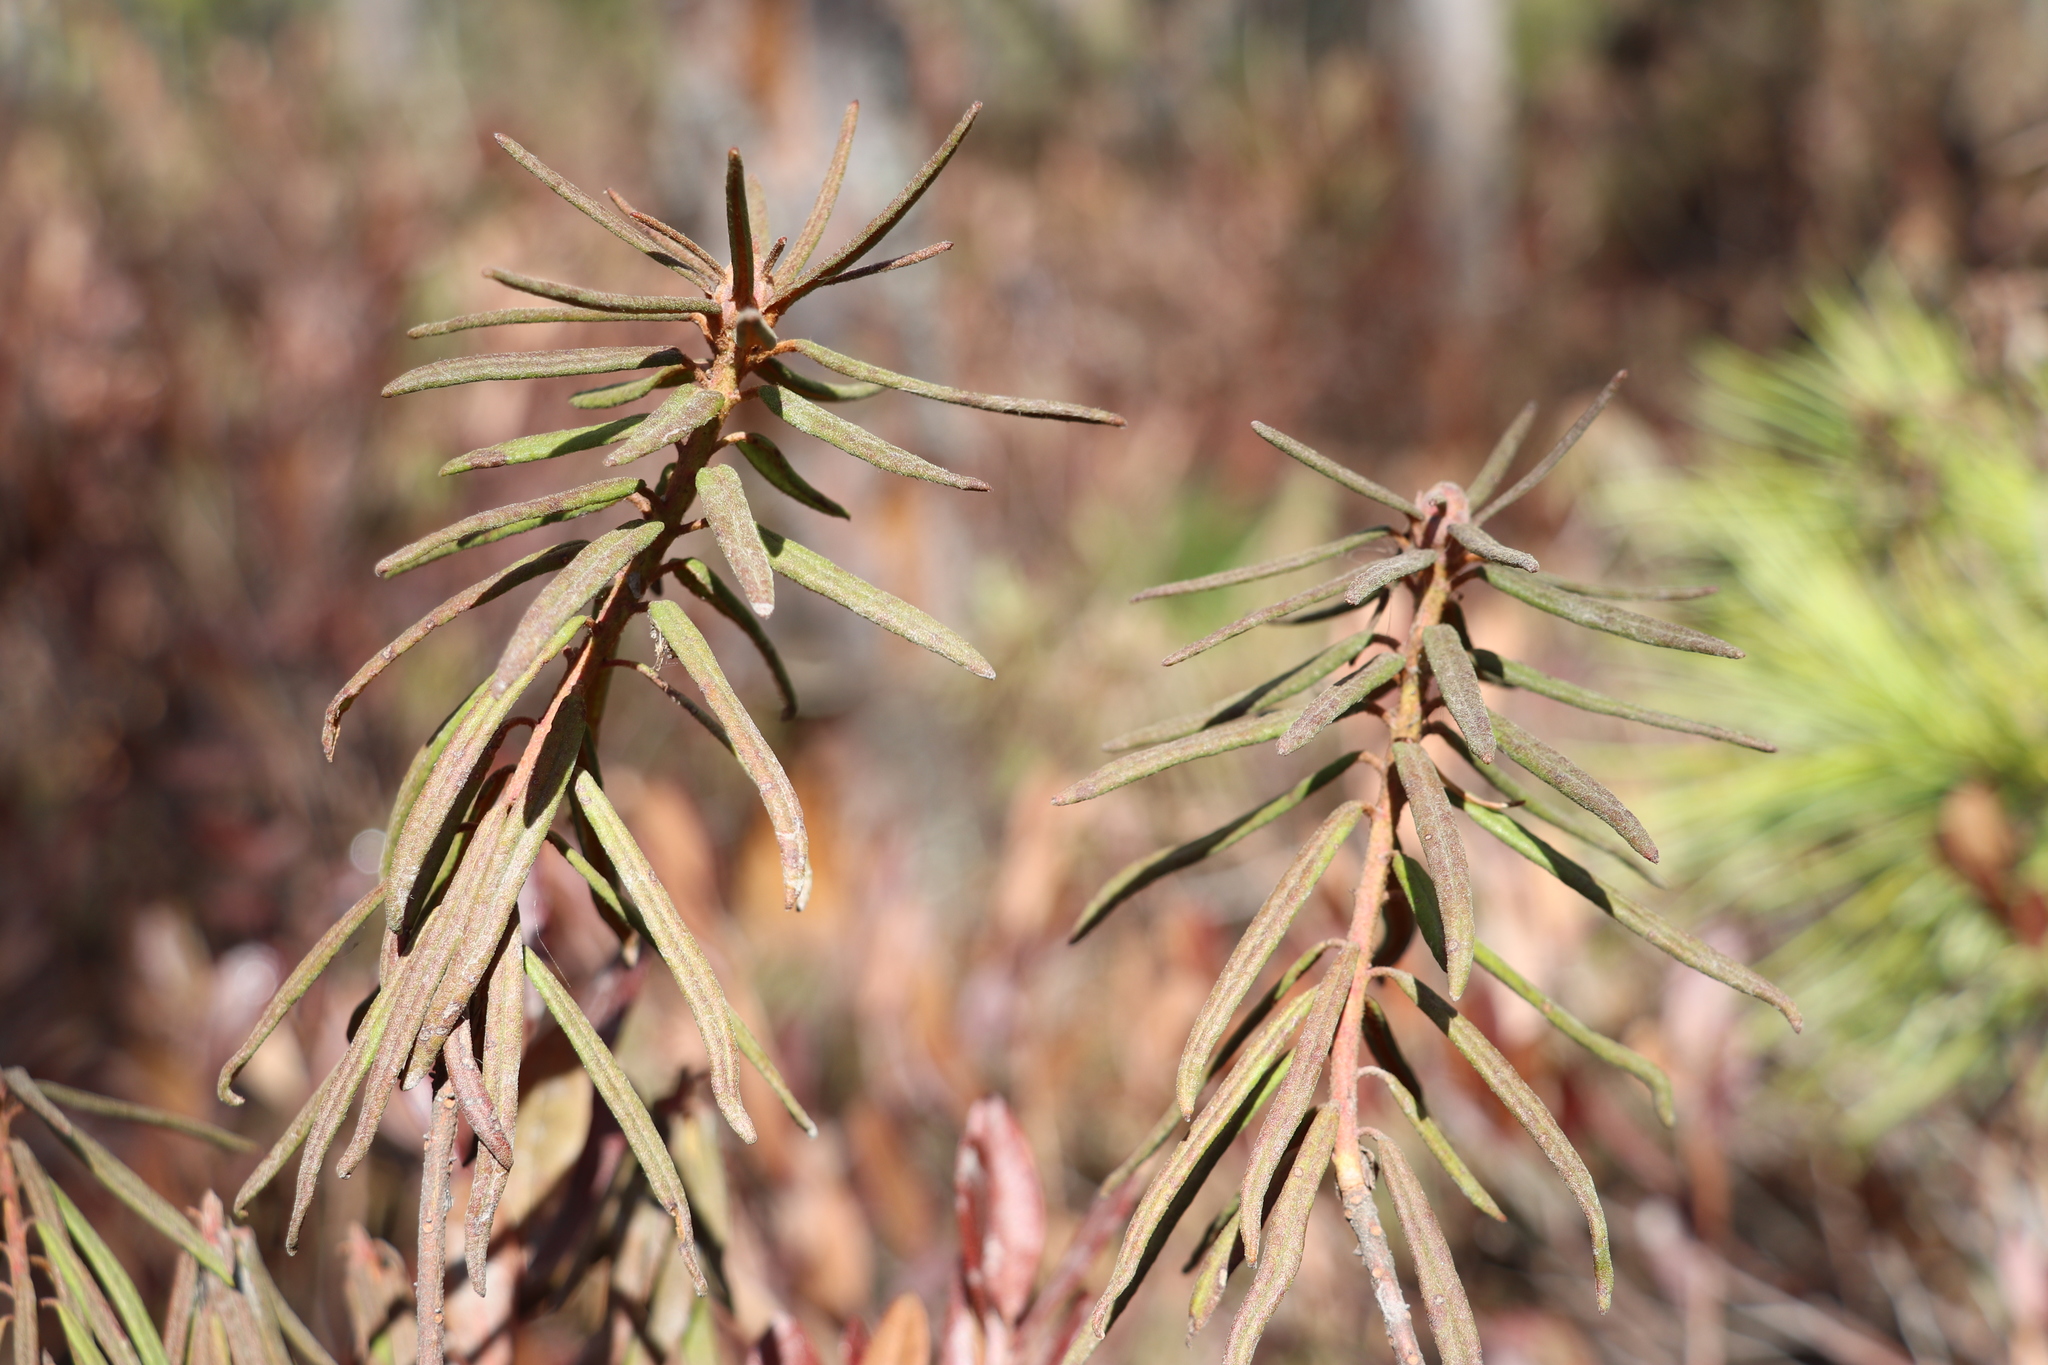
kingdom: Plantae
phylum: Tracheophyta
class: Magnoliopsida
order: Ericales
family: Ericaceae
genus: Rhododendron
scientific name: Rhododendron tomentosum
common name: Marsh labrador tea
